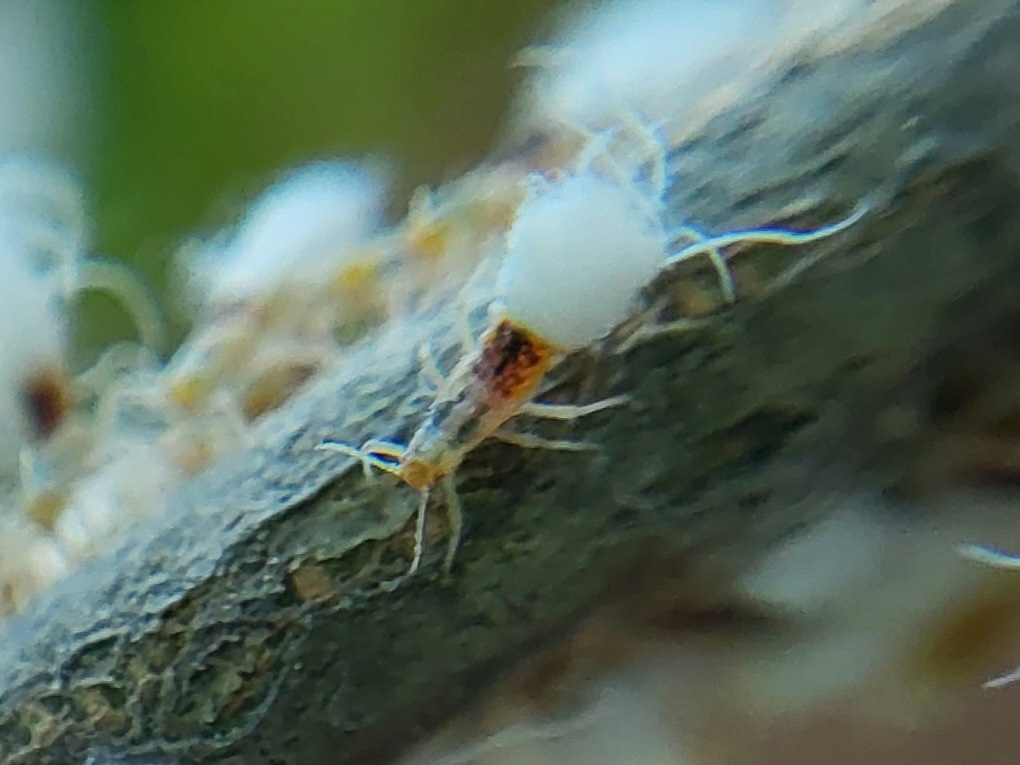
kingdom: Animalia
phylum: Arthropoda
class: Insecta
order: Hemiptera
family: Aphididae
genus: Grylloprociphilus
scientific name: Grylloprociphilus imbricator
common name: Beech blight aphid
